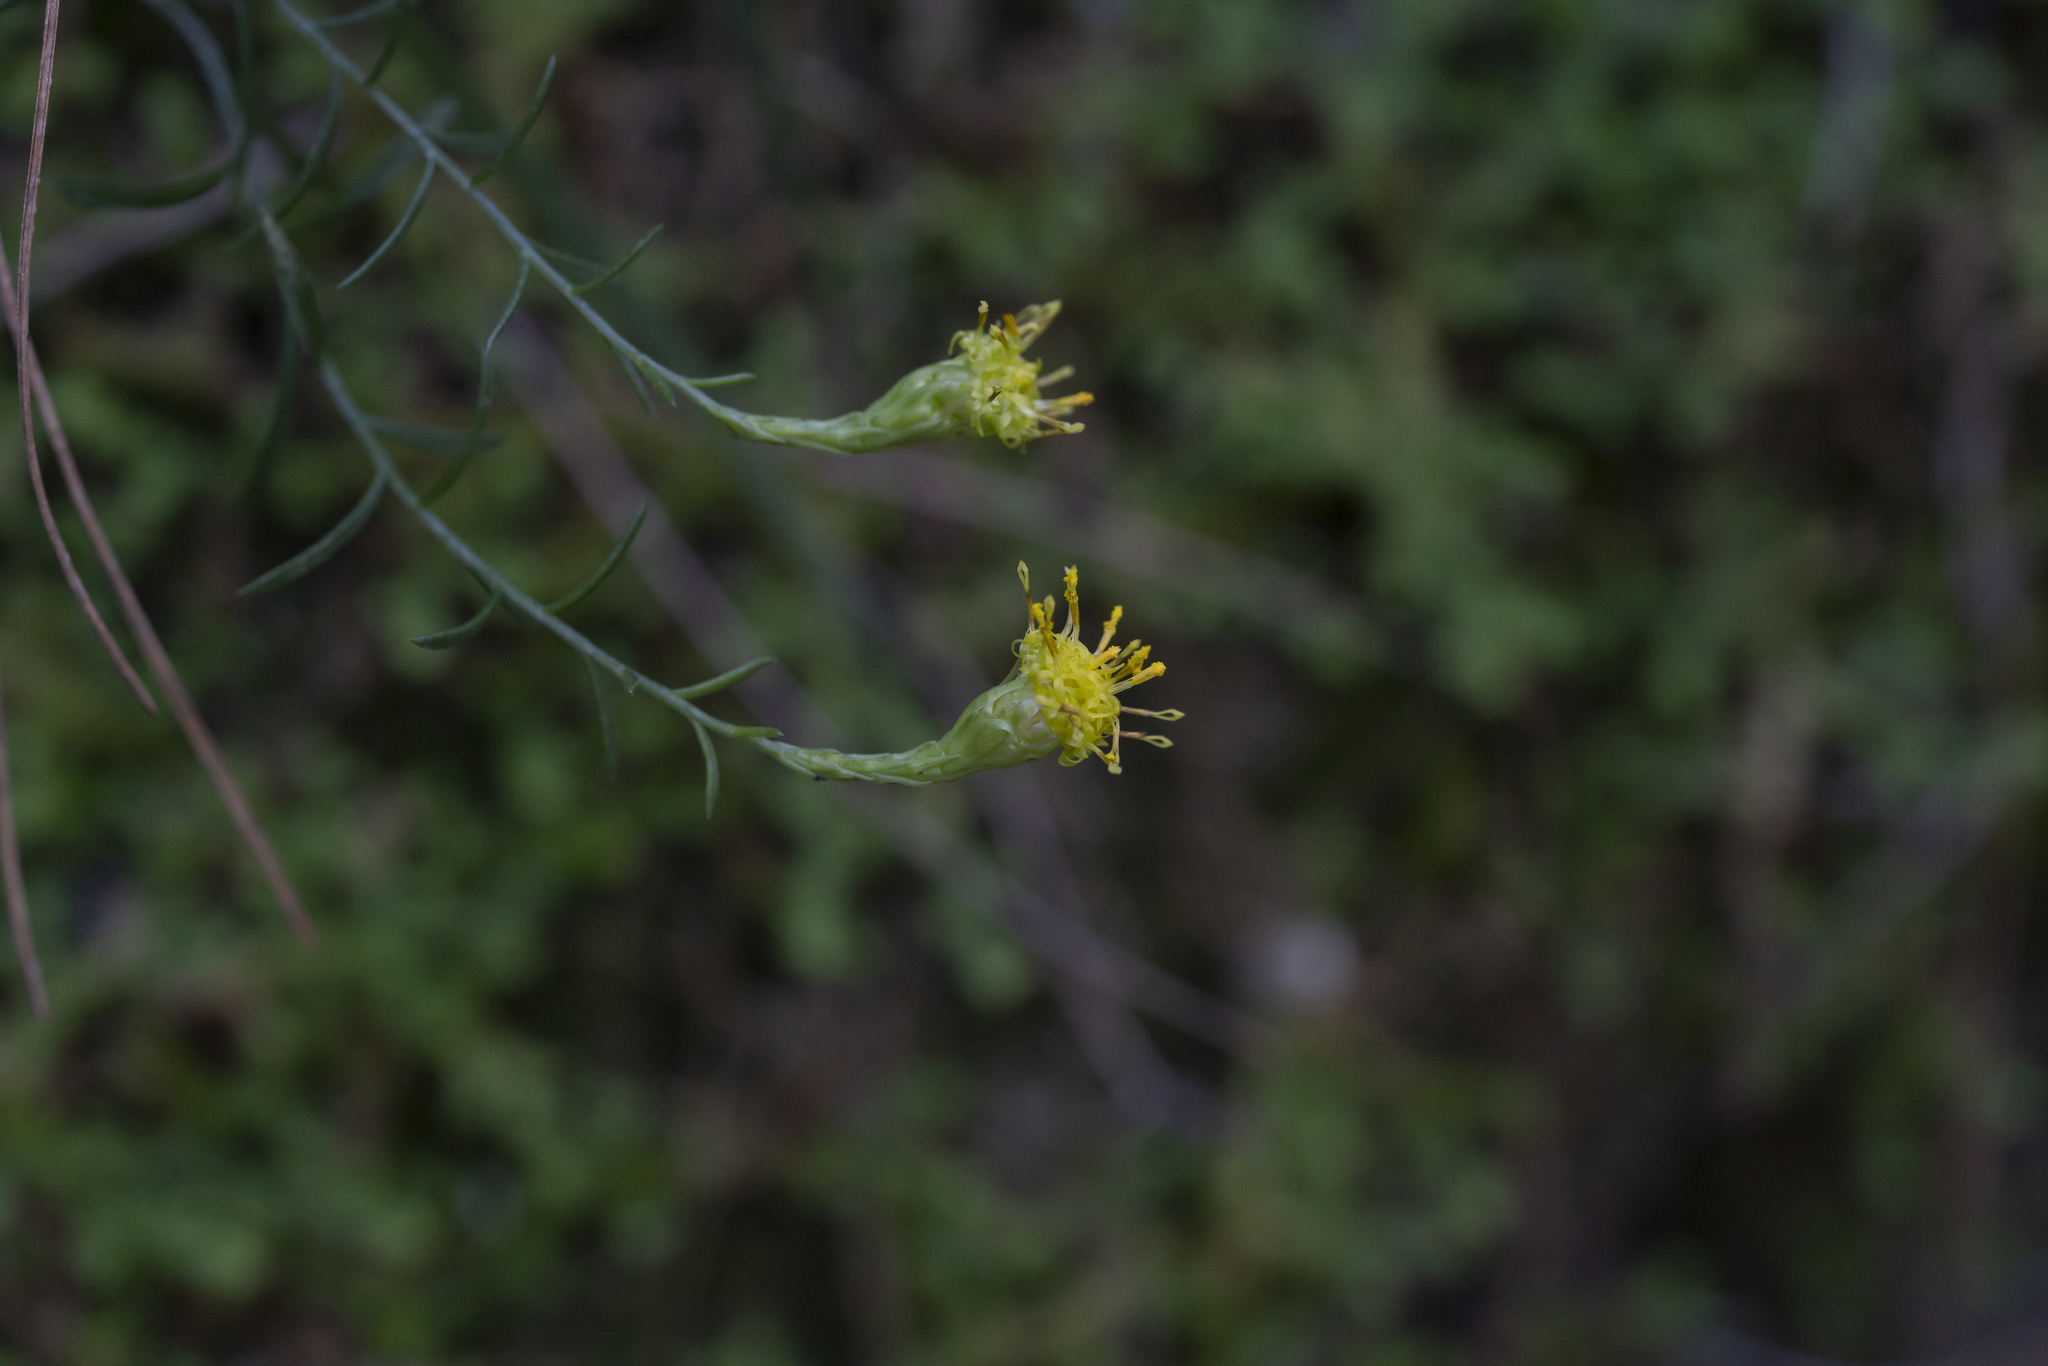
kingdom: Plantae
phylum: Tracheophyta
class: Magnoliopsida
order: Asterales
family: Asteraceae
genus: Galatella
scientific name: Galatella cretica
